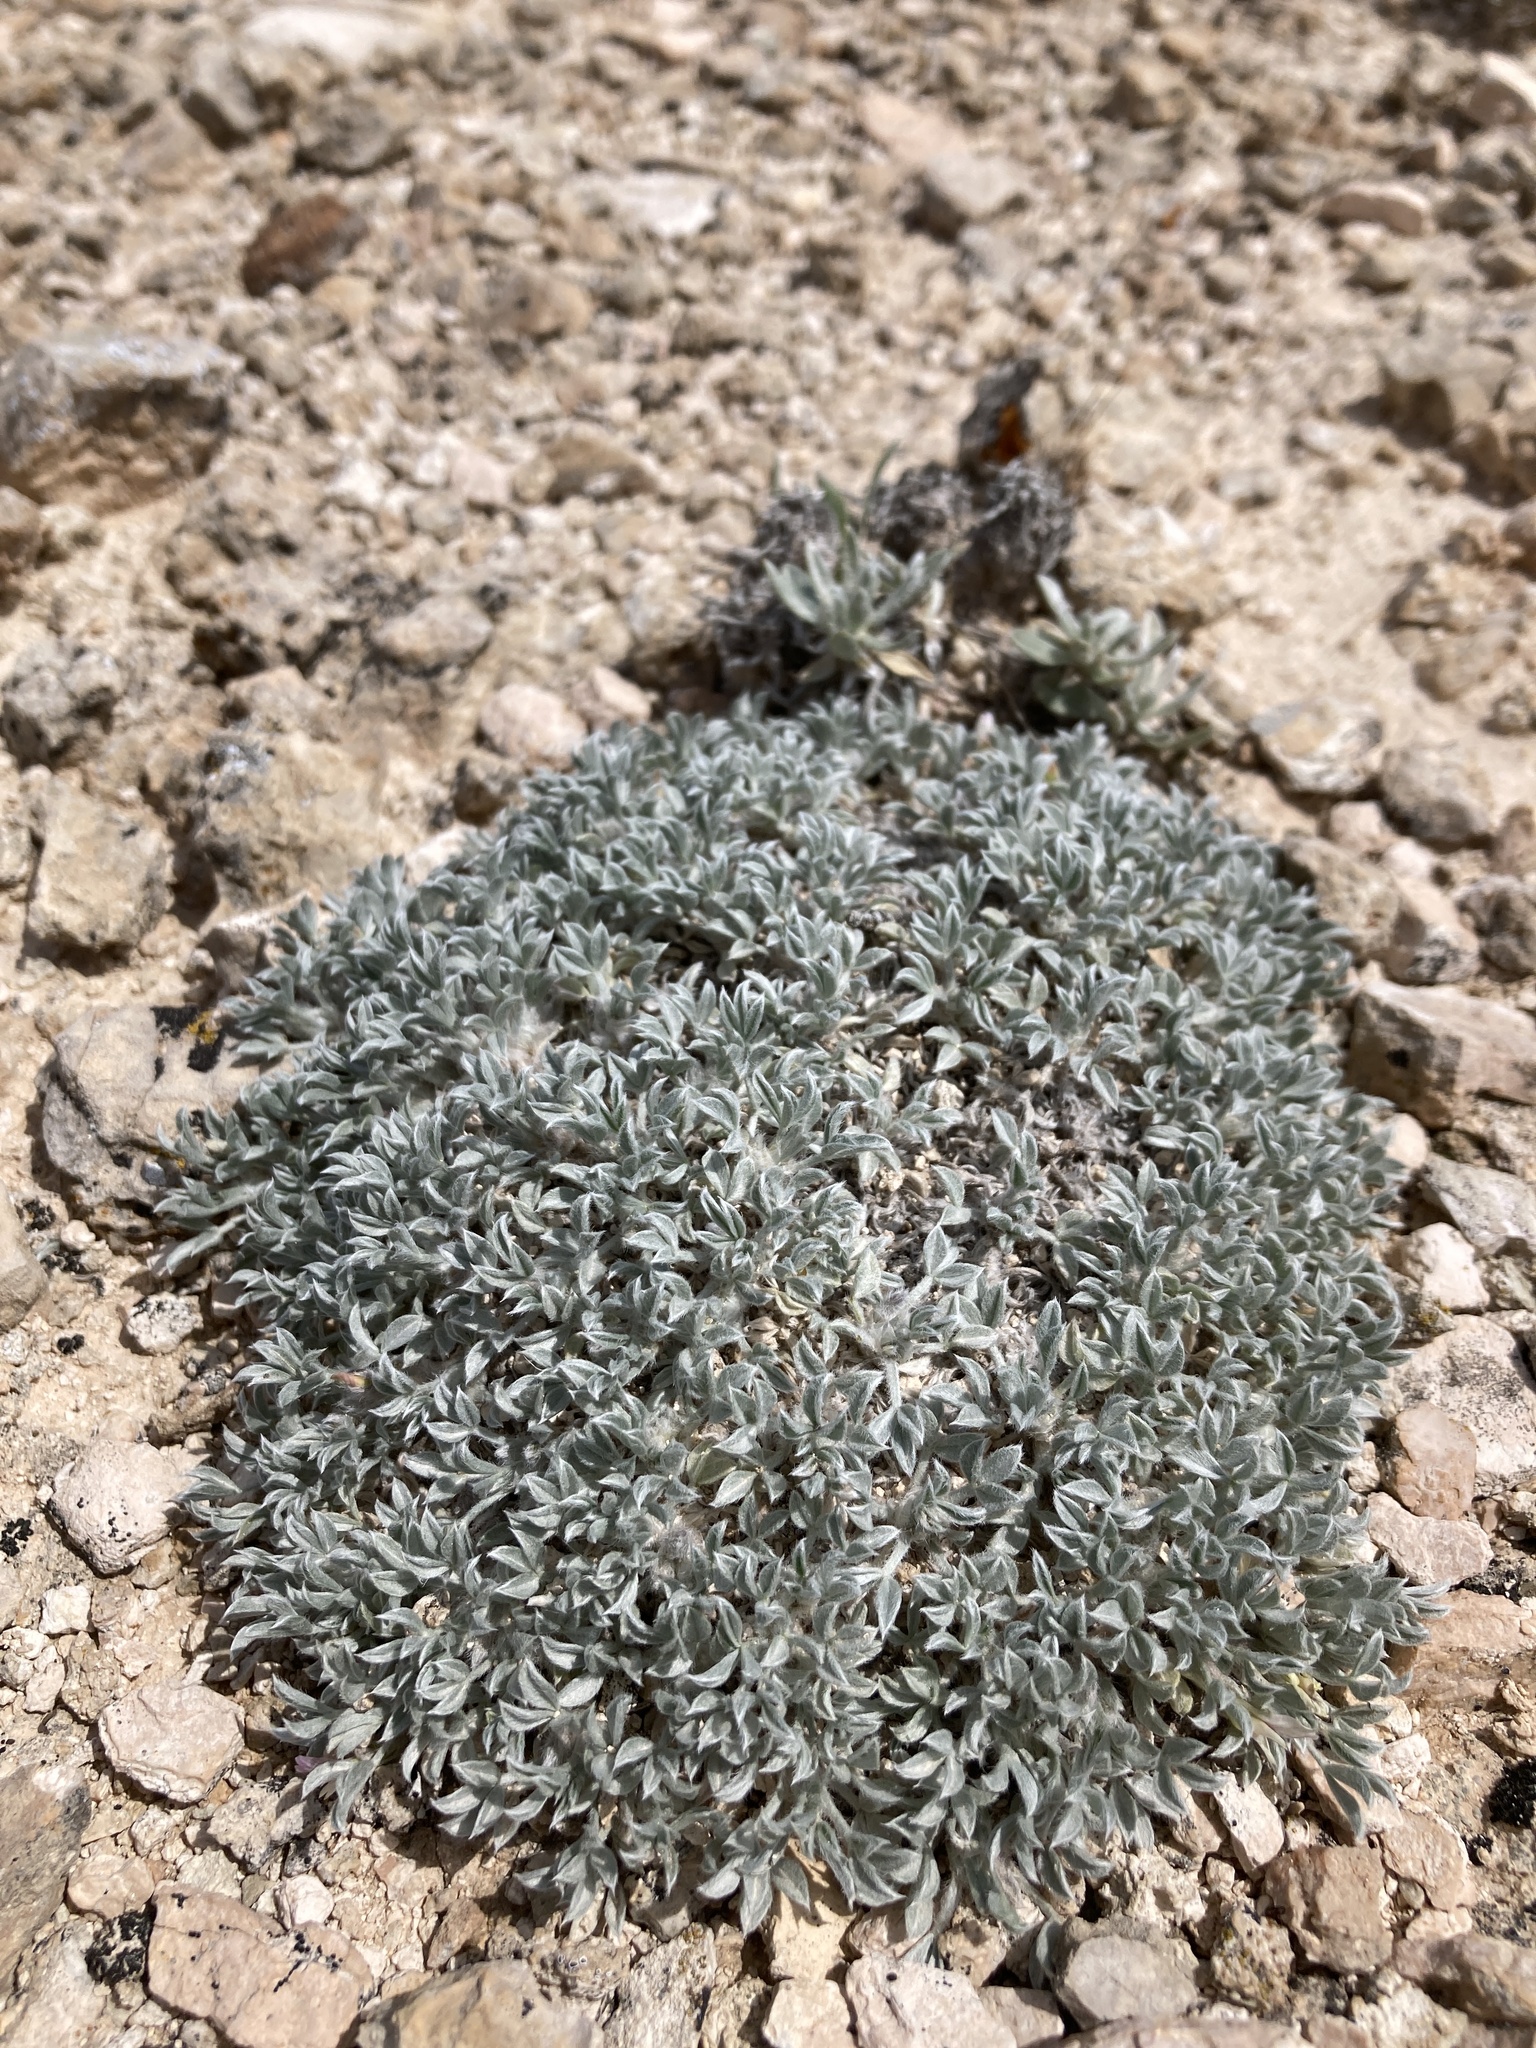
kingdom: Plantae
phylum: Tracheophyta
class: Magnoliopsida
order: Fabales
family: Fabaceae
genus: Astragalus
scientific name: Astragalus hyalinus
